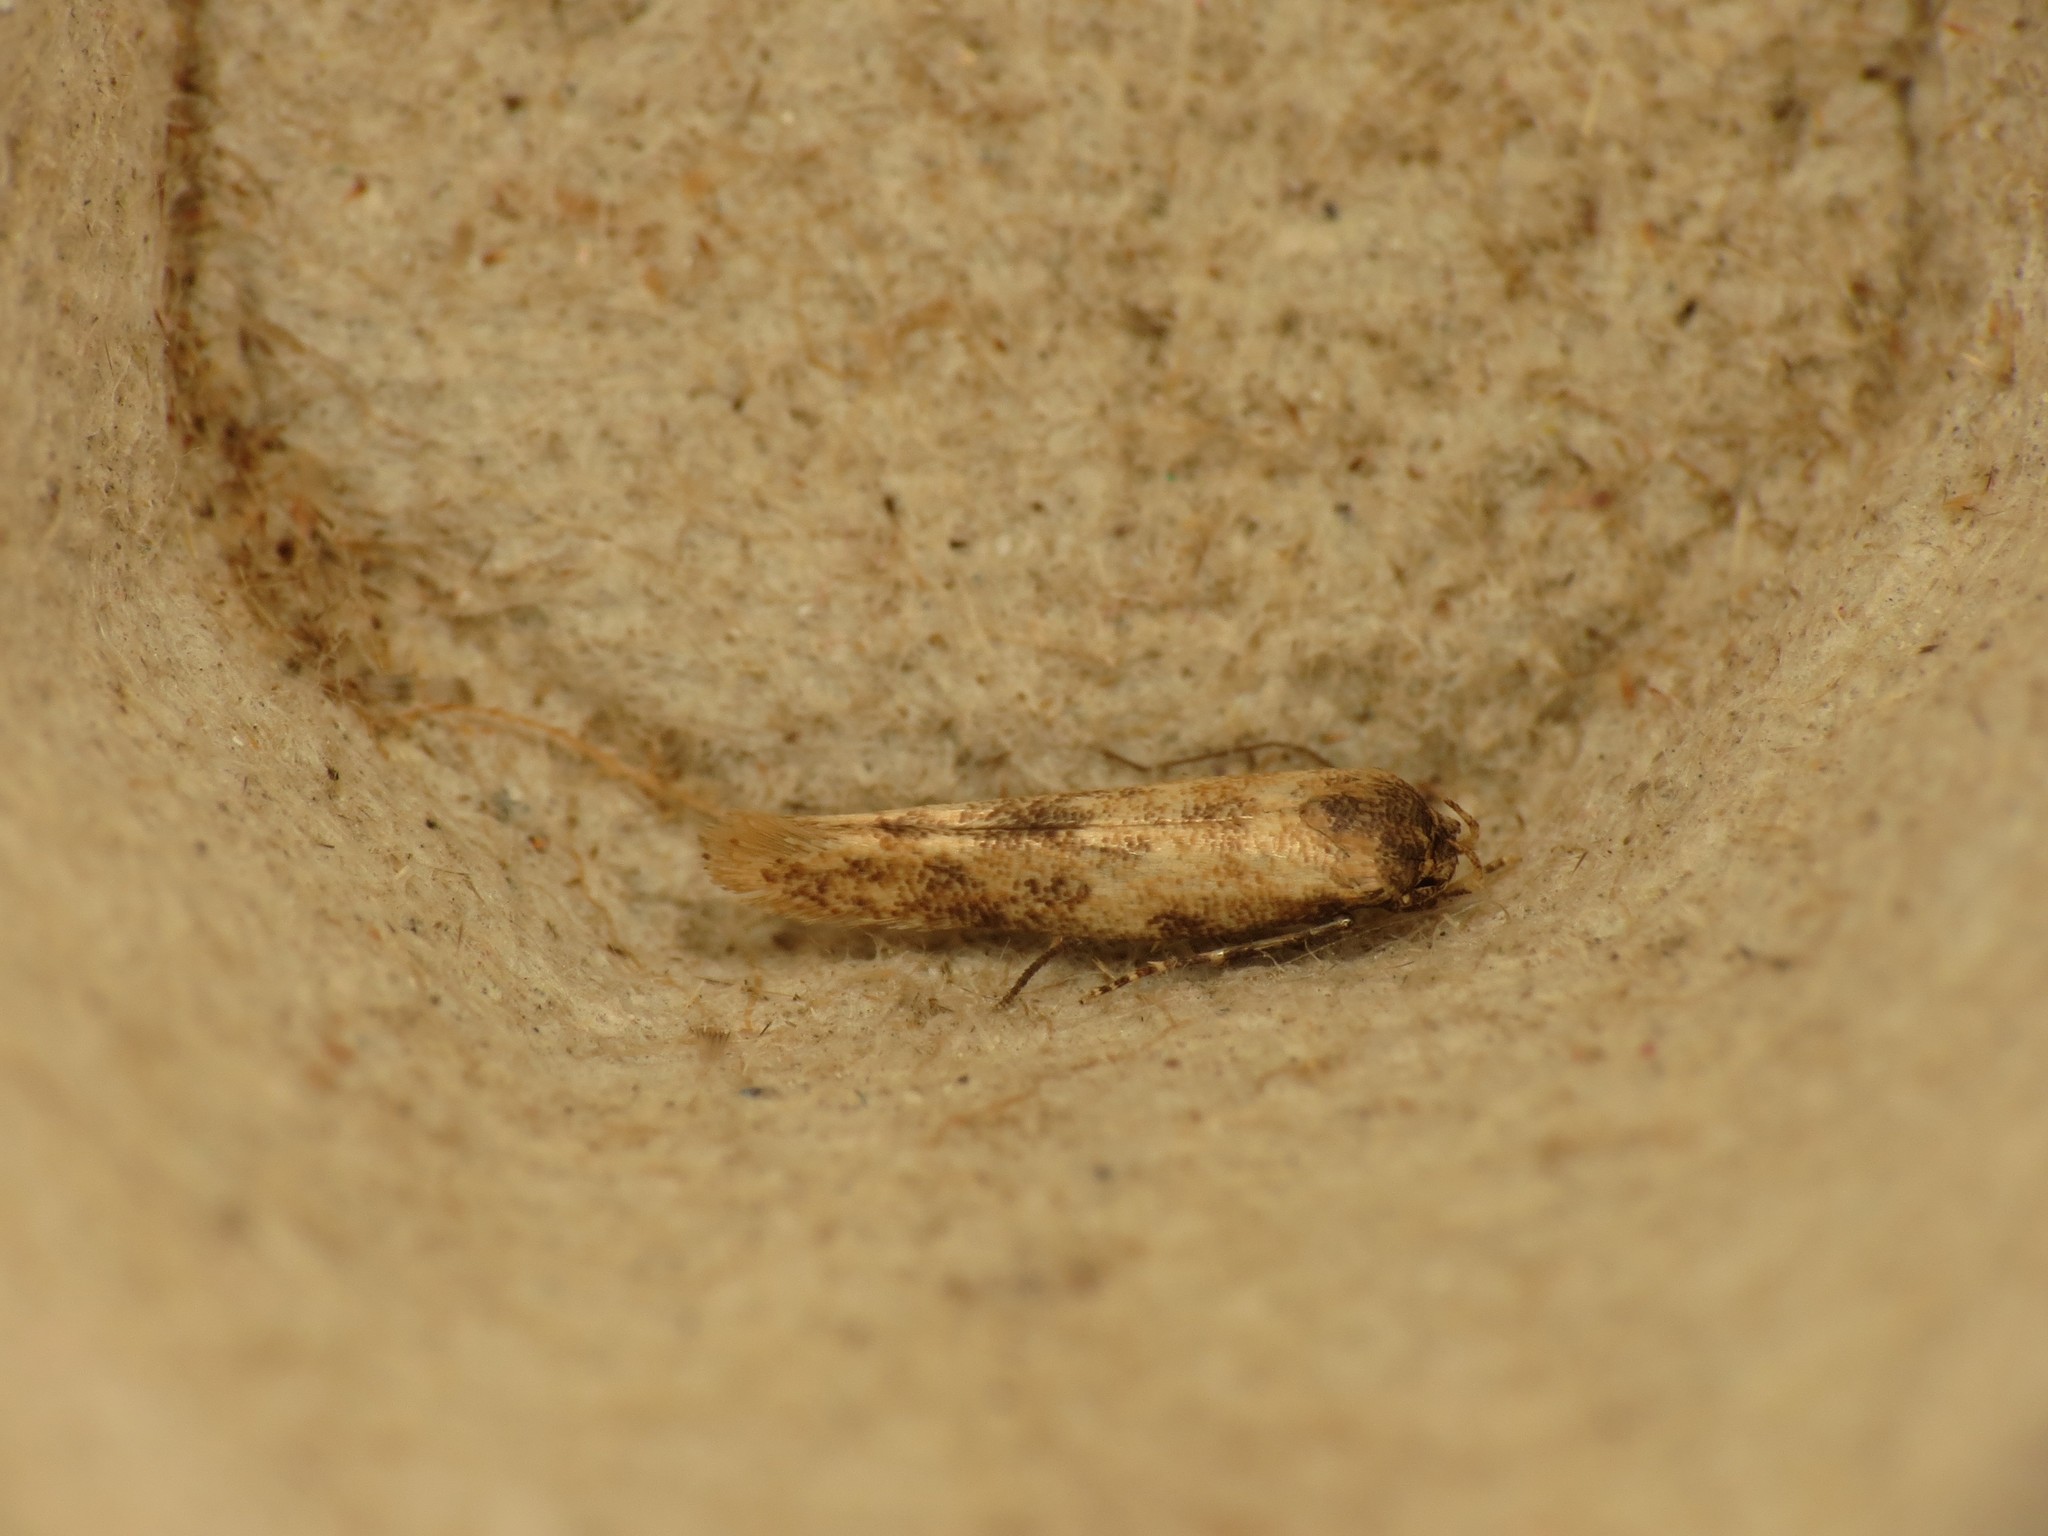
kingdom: Animalia
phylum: Arthropoda
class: Insecta
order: Lepidoptera
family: Momphidae
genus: Mompha
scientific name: Mompha epilobiella
